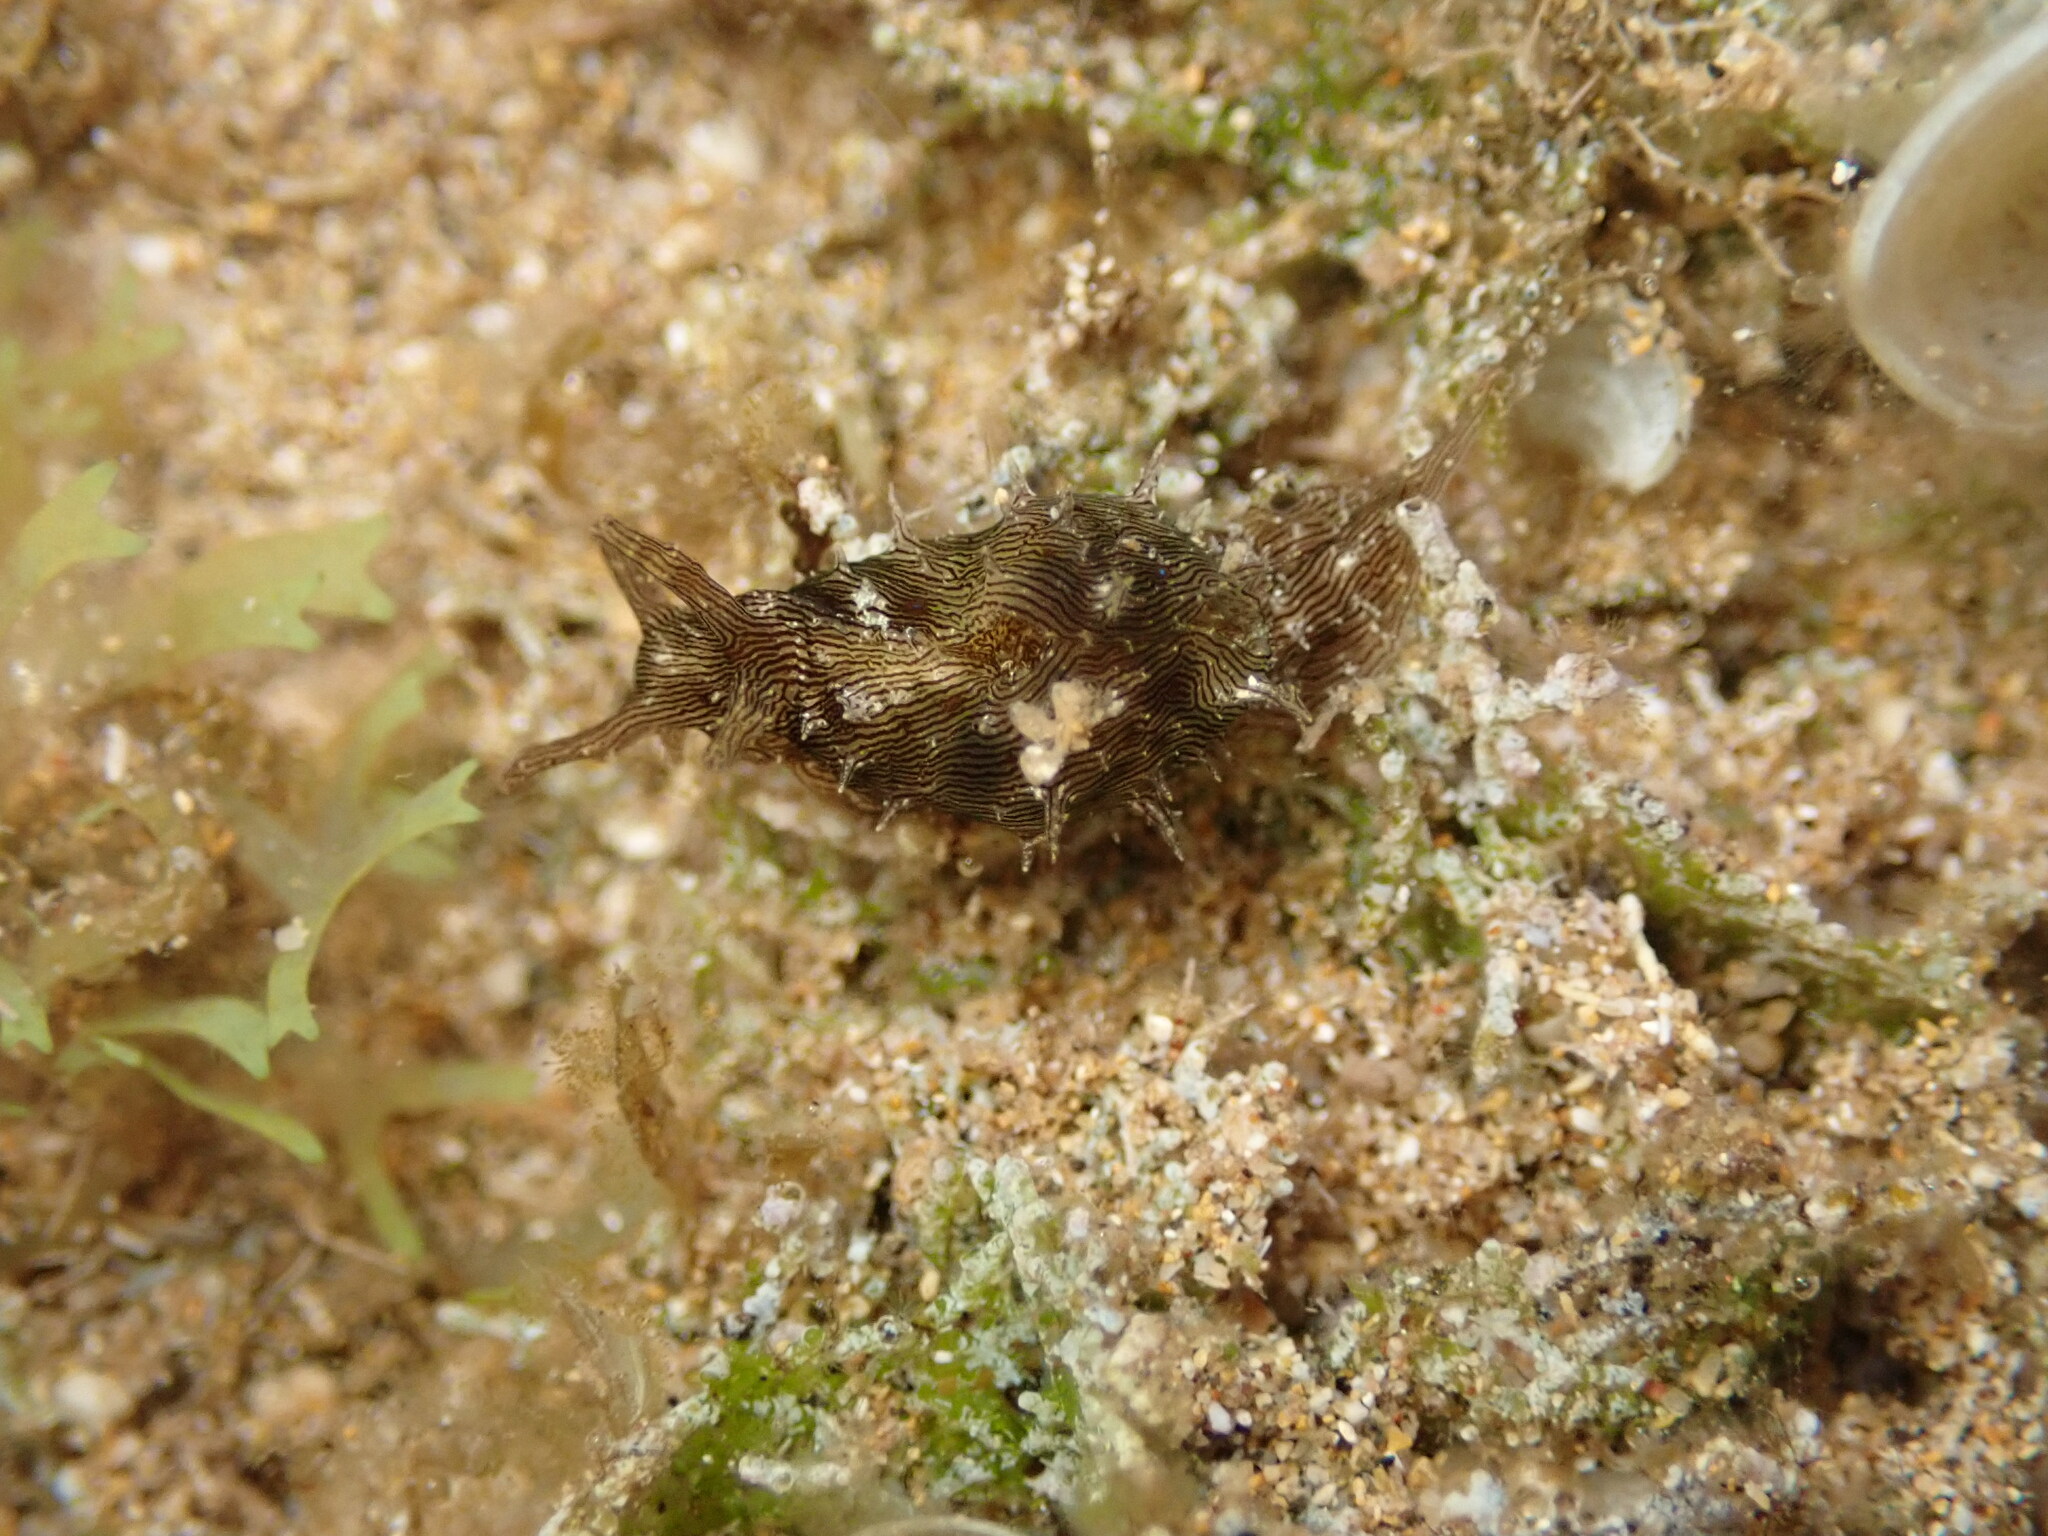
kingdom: Animalia
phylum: Mollusca
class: Gastropoda
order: Aplysiida
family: Aplysiidae
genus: Stylocheilus
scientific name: Stylocheilus striatus
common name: Striated seahare
